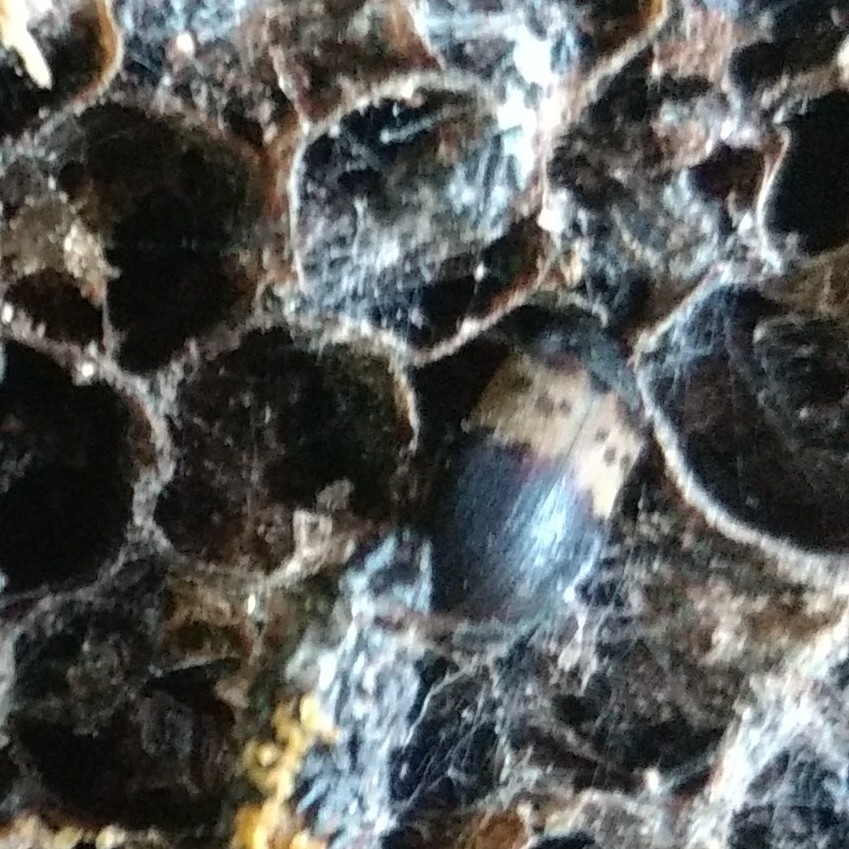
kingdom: Animalia
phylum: Arthropoda
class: Insecta
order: Coleoptera
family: Dermestidae
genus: Dermestes
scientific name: Dermestes lardarius
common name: Larder beetle
